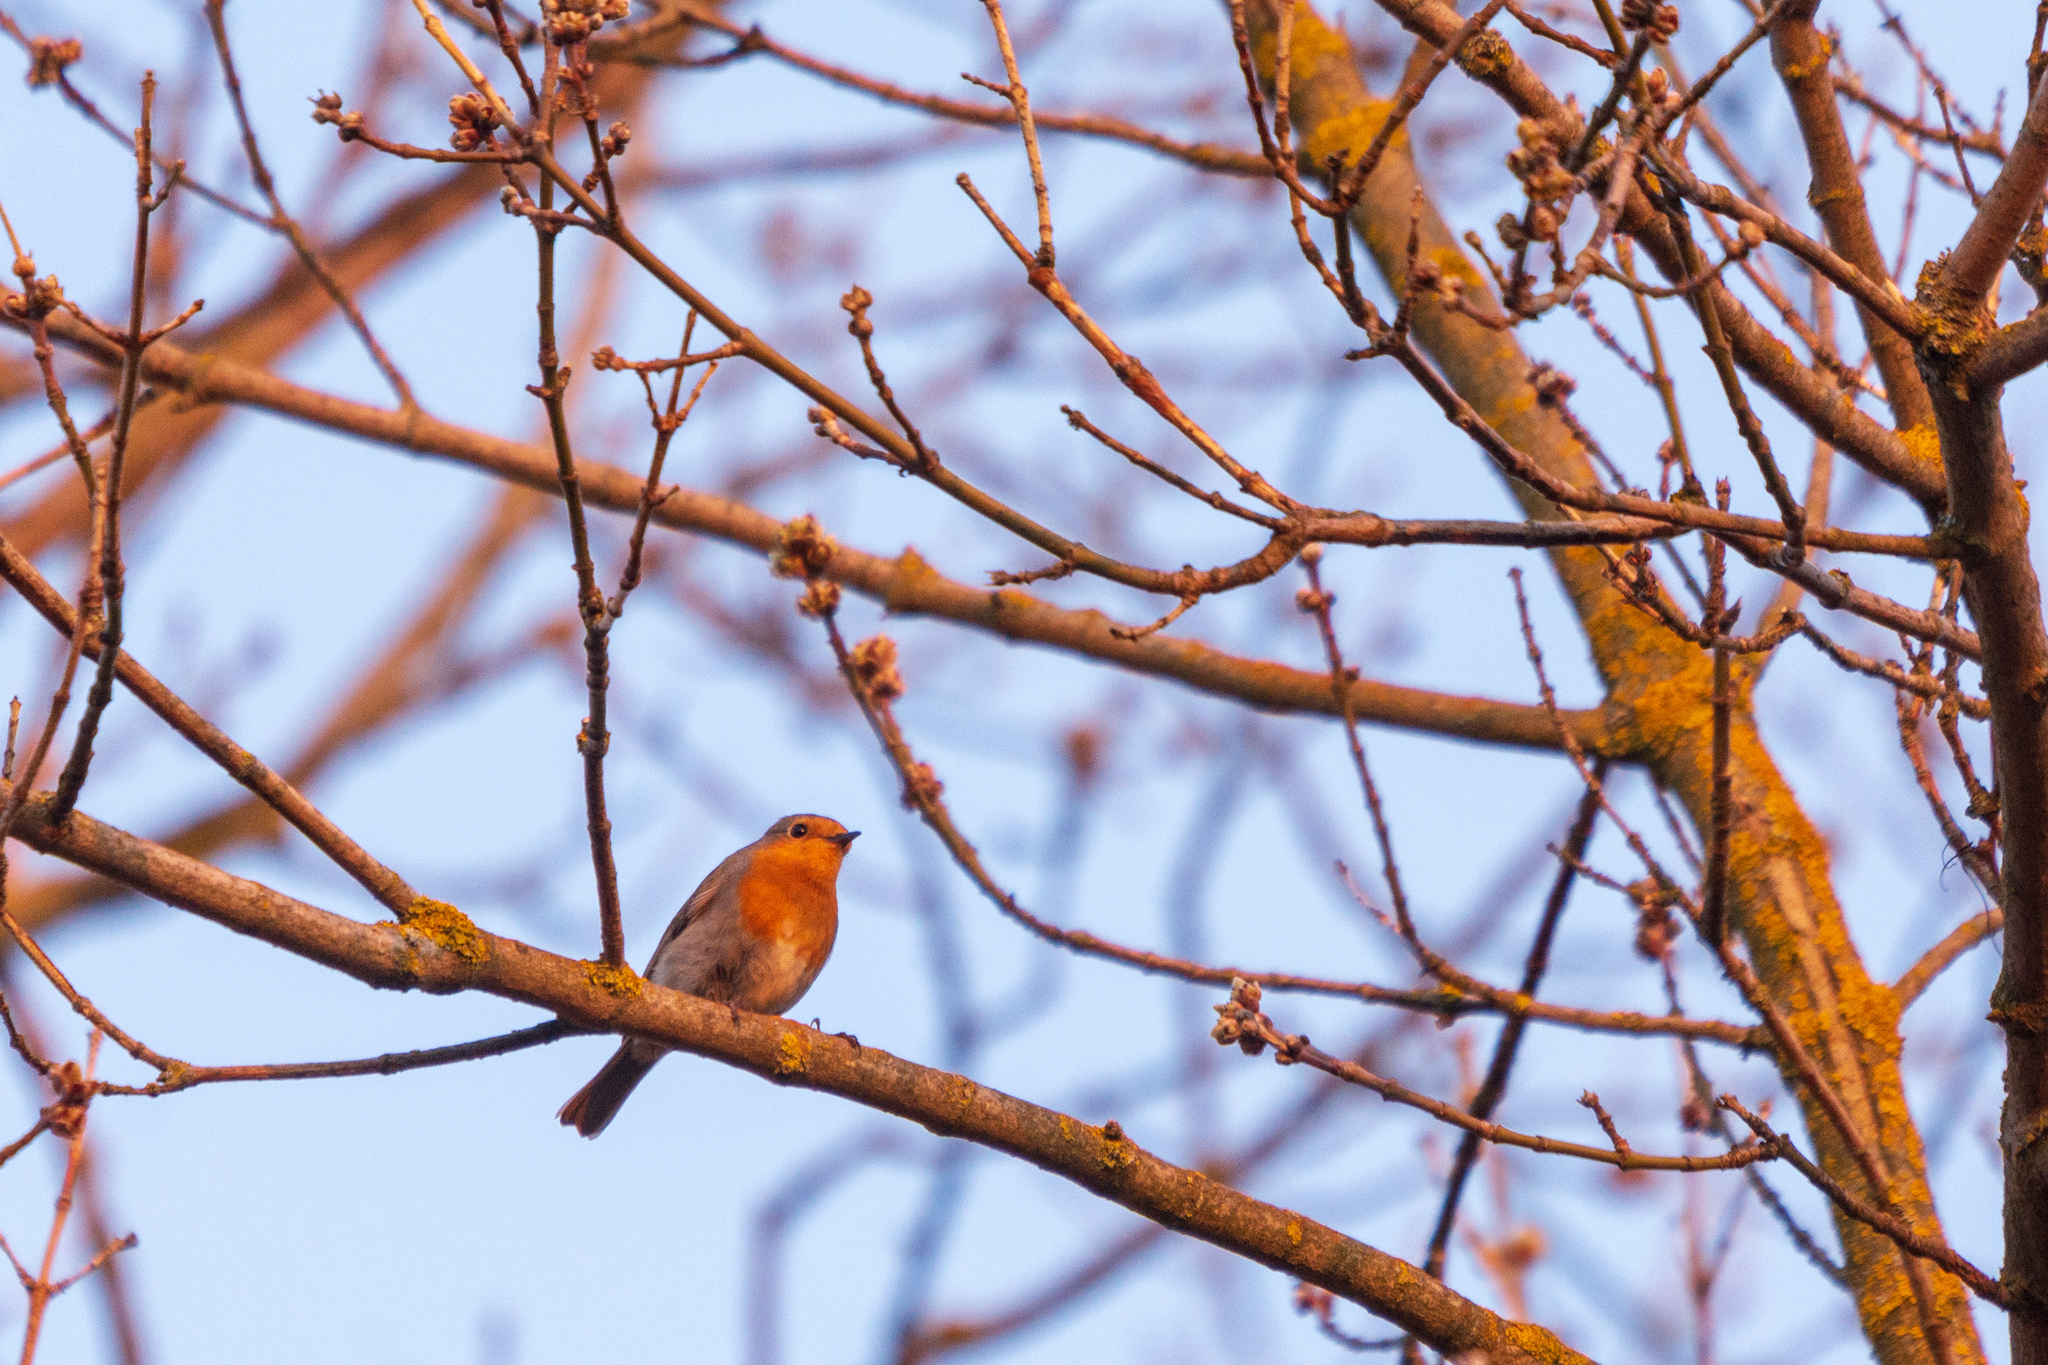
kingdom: Animalia
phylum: Chordata
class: Aves
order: Passeriformes
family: Muscicapidae
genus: Erithacus
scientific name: Erithacus rubecula
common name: European robin
